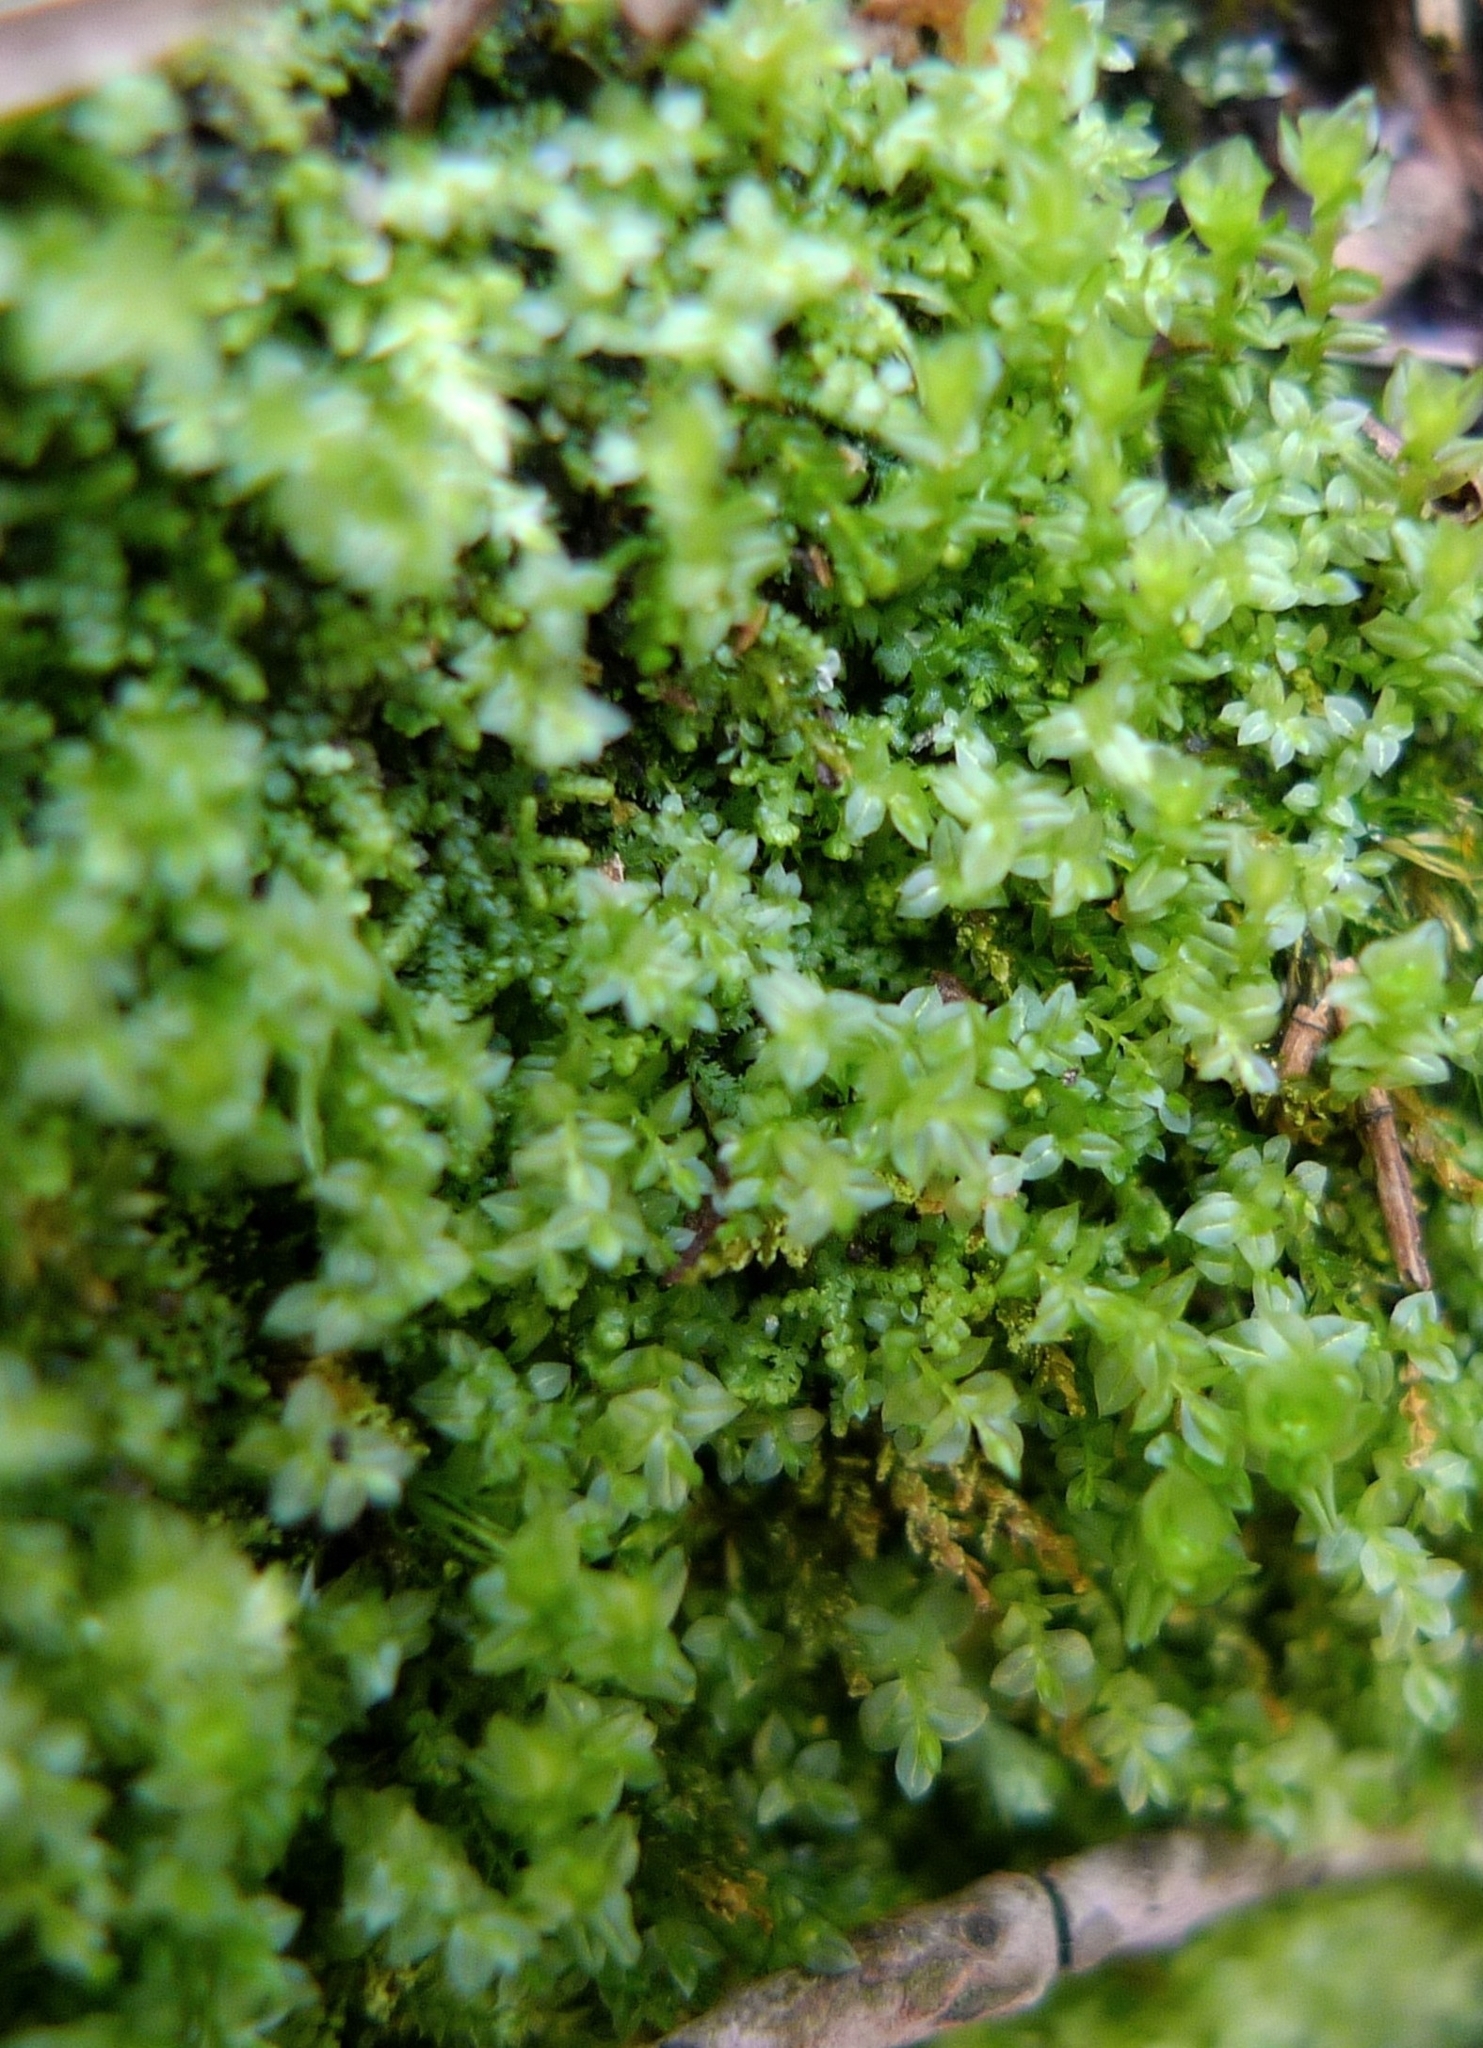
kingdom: Plantae
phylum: Marchantiophyta
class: Jungermanniopsida
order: Jungermanniales
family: Lepidoziaceae
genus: Lepidozia
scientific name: Lepidozia reptans
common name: Creeping fingerwort
